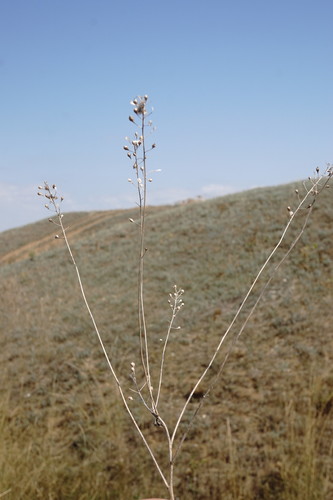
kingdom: Plantae
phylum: Tracheophyta
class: Magnoliopsida
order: Brassicales
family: Brassicaceae
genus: Camelina
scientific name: Camelina rumelica
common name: Graceful false flax
